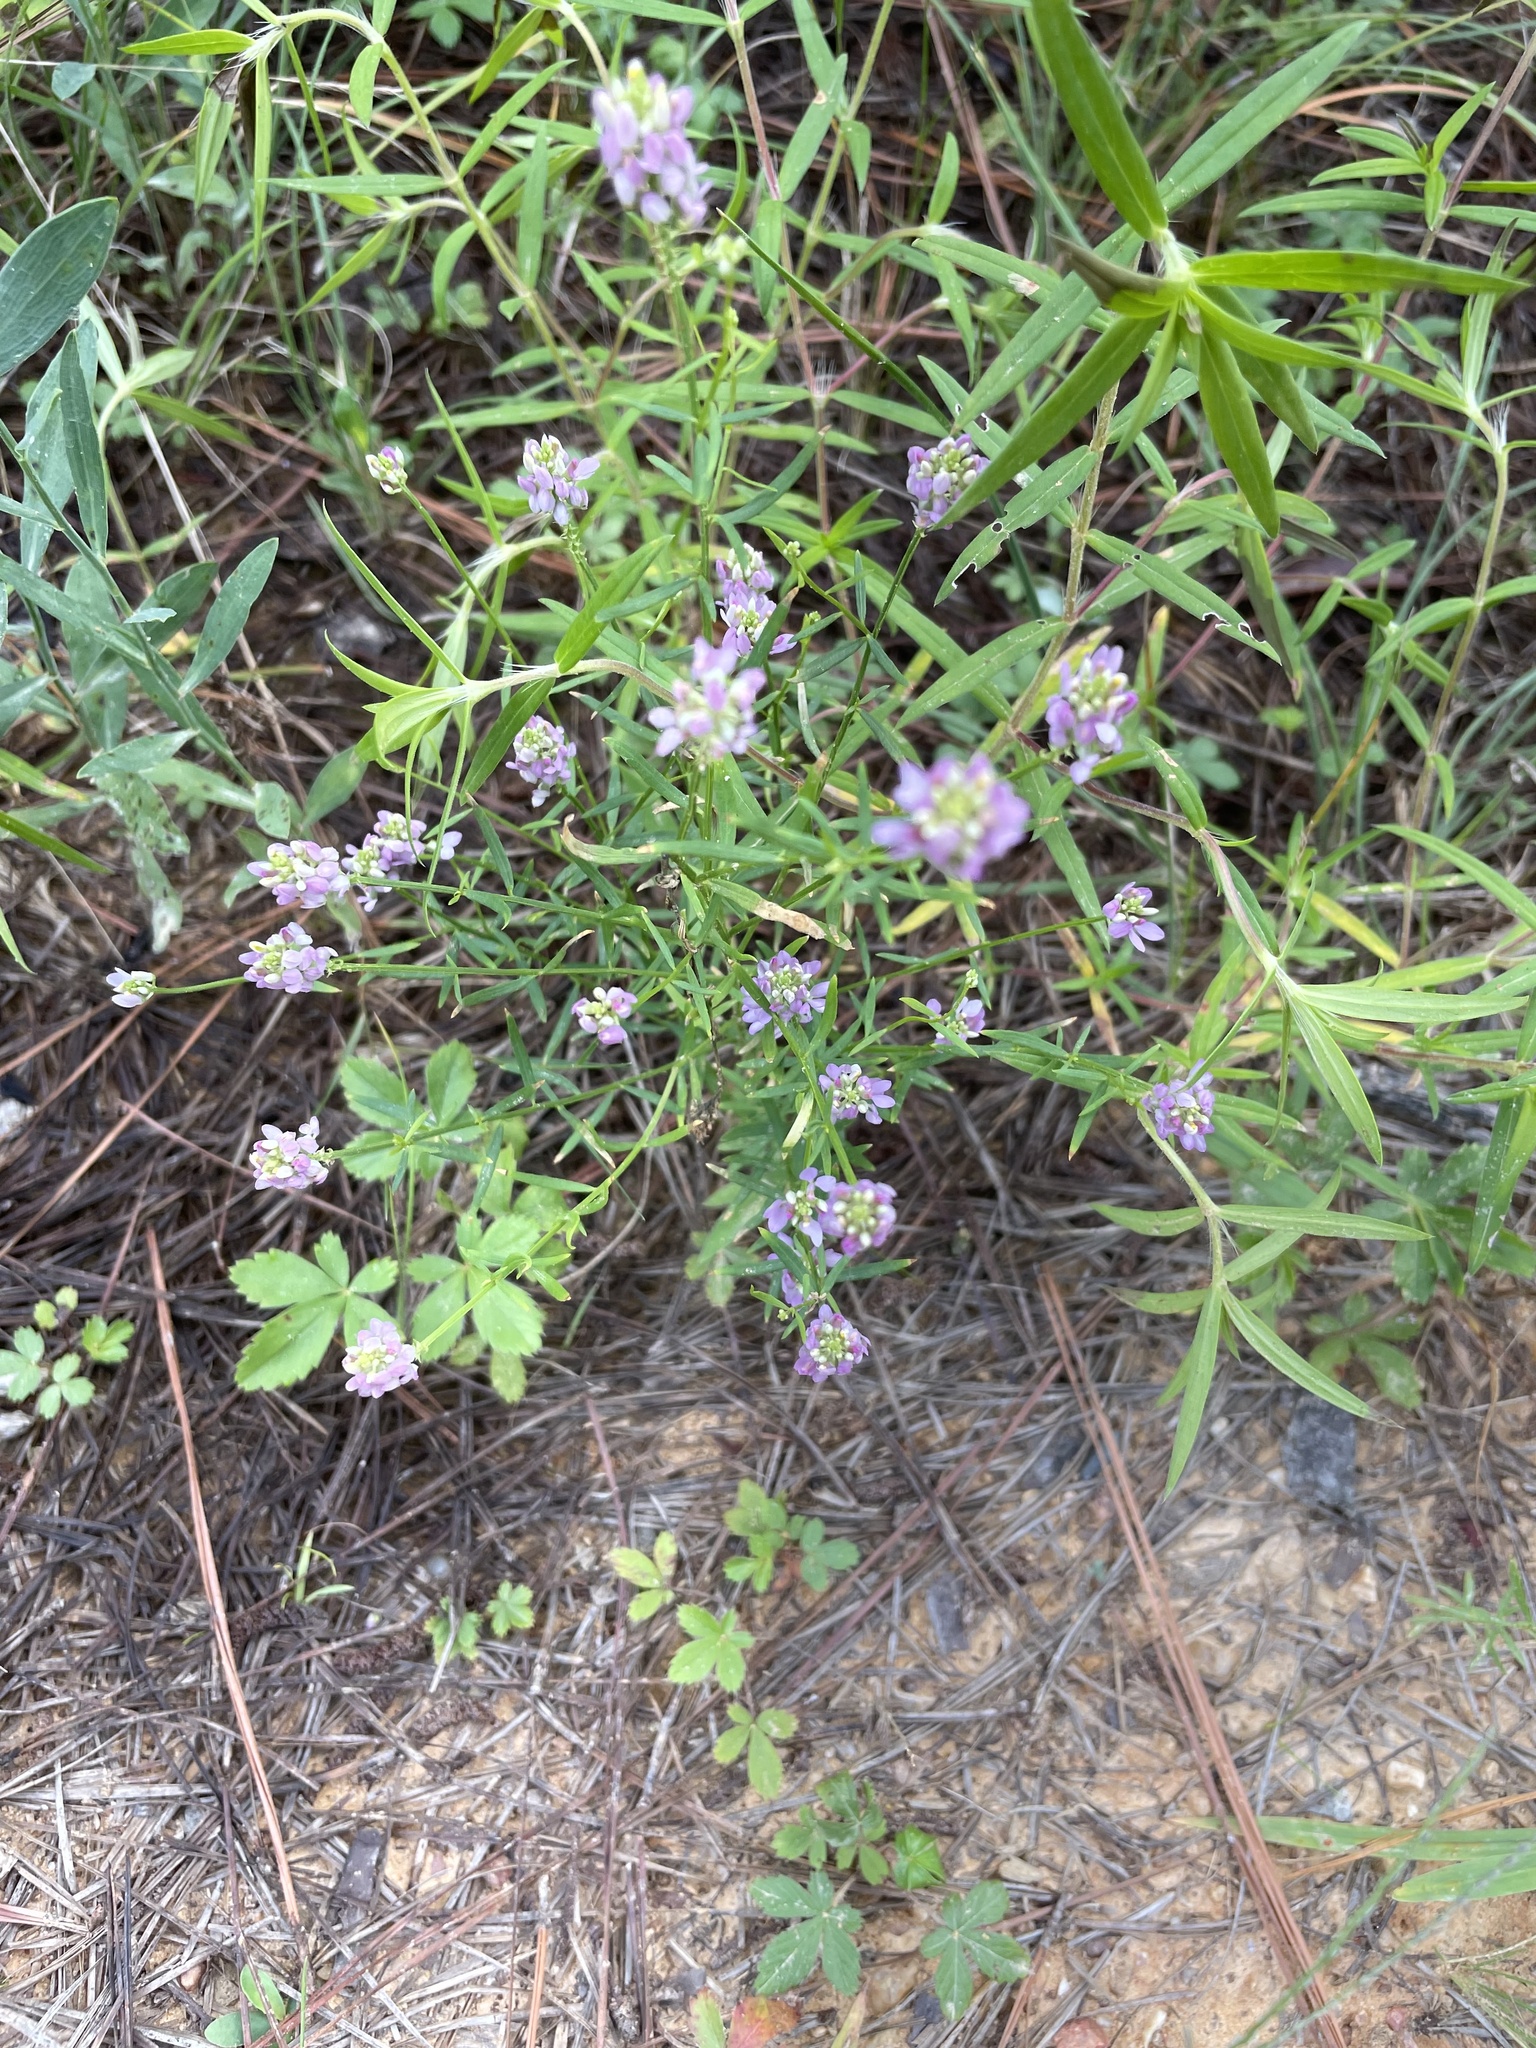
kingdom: Plantae
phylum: Tracheophyta
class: Magnoliopsida
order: Fabales
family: Polygalaceae
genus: Polygala
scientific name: Polygala curtissii
